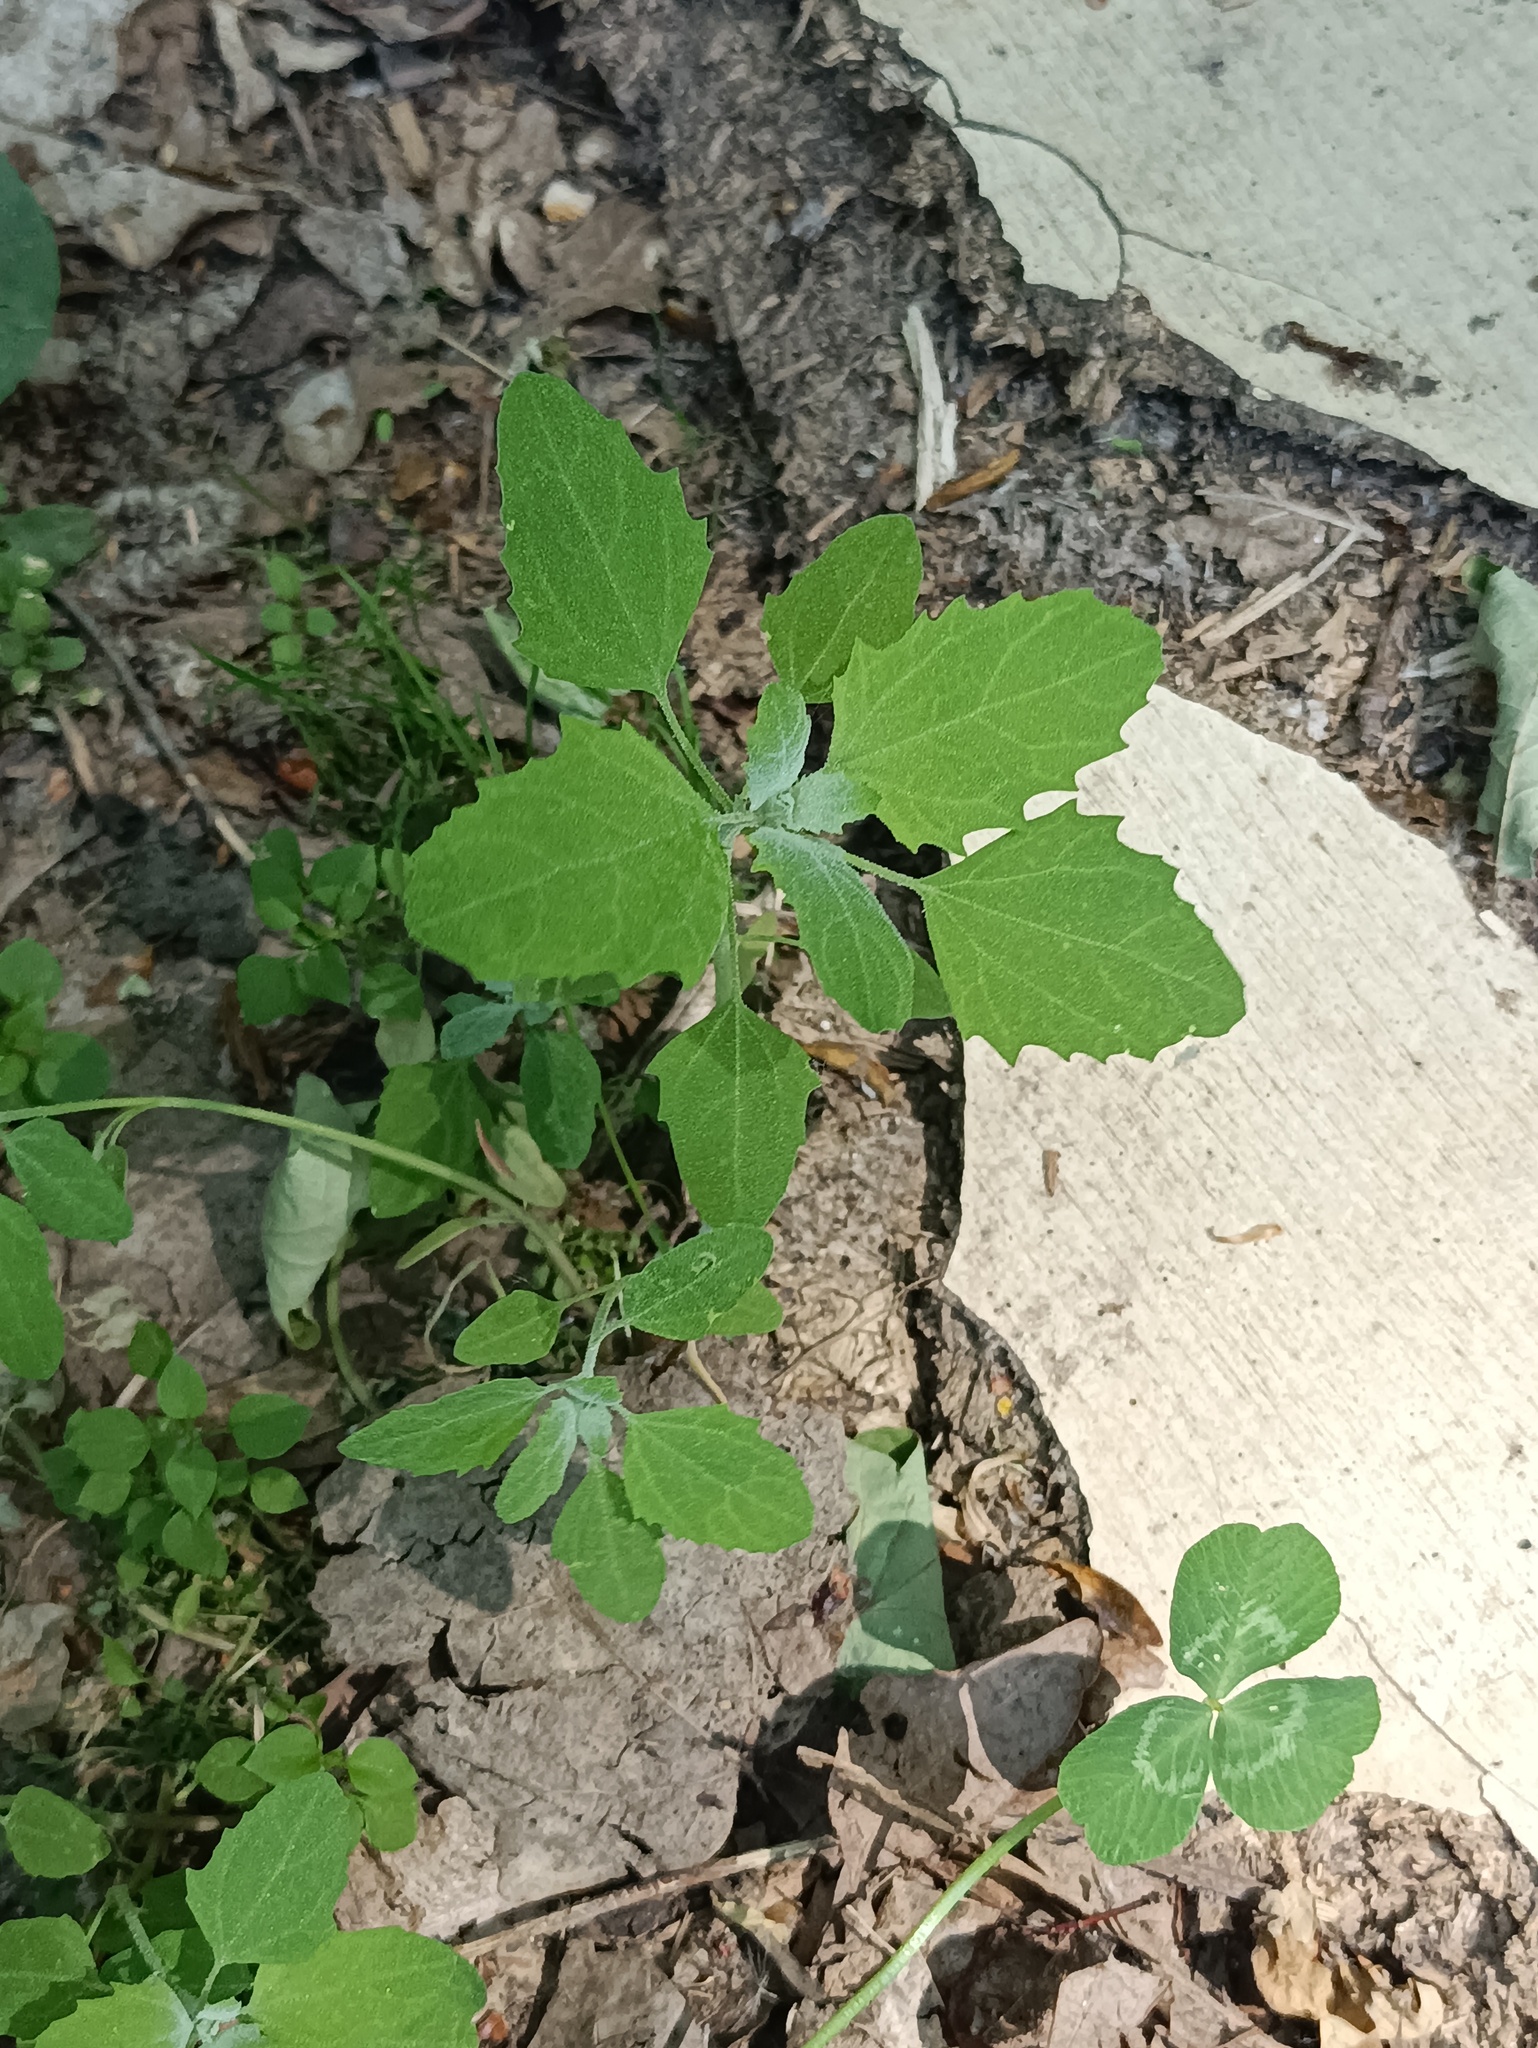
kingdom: Plantae
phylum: Tracheophyta
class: Magnoliopsida
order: Caryophyllales
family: Amaranthaceae
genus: Chenopodium
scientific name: Chenopodium album
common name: Fat-hen
